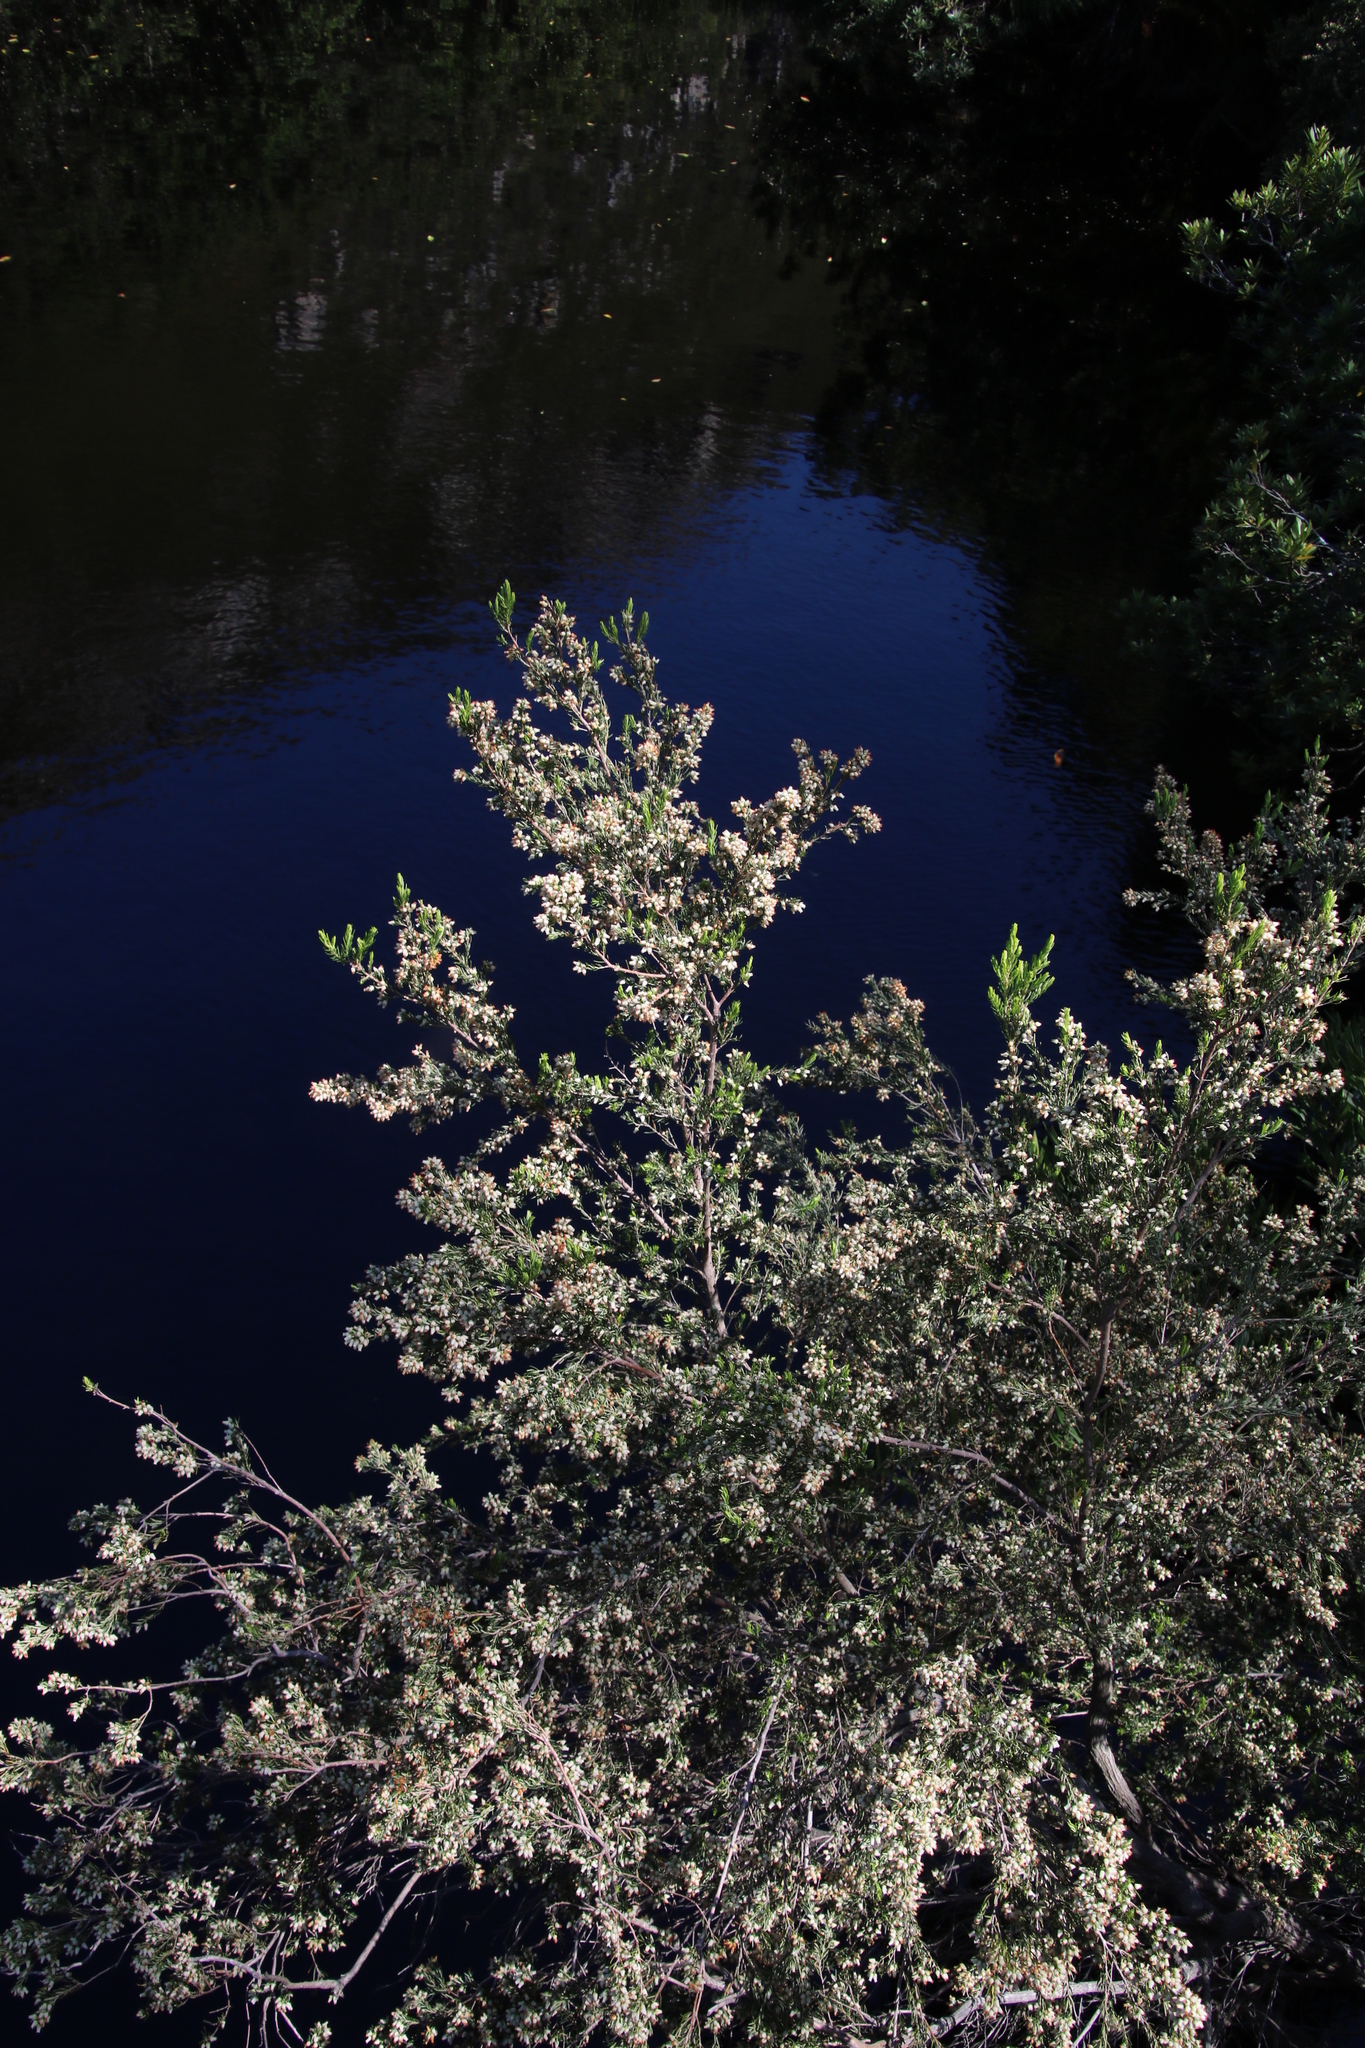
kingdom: Plantae
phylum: Tracheophyta
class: Magnoliopsida
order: Ericales
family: Ericaceae
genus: Erica
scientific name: Erica caffra
